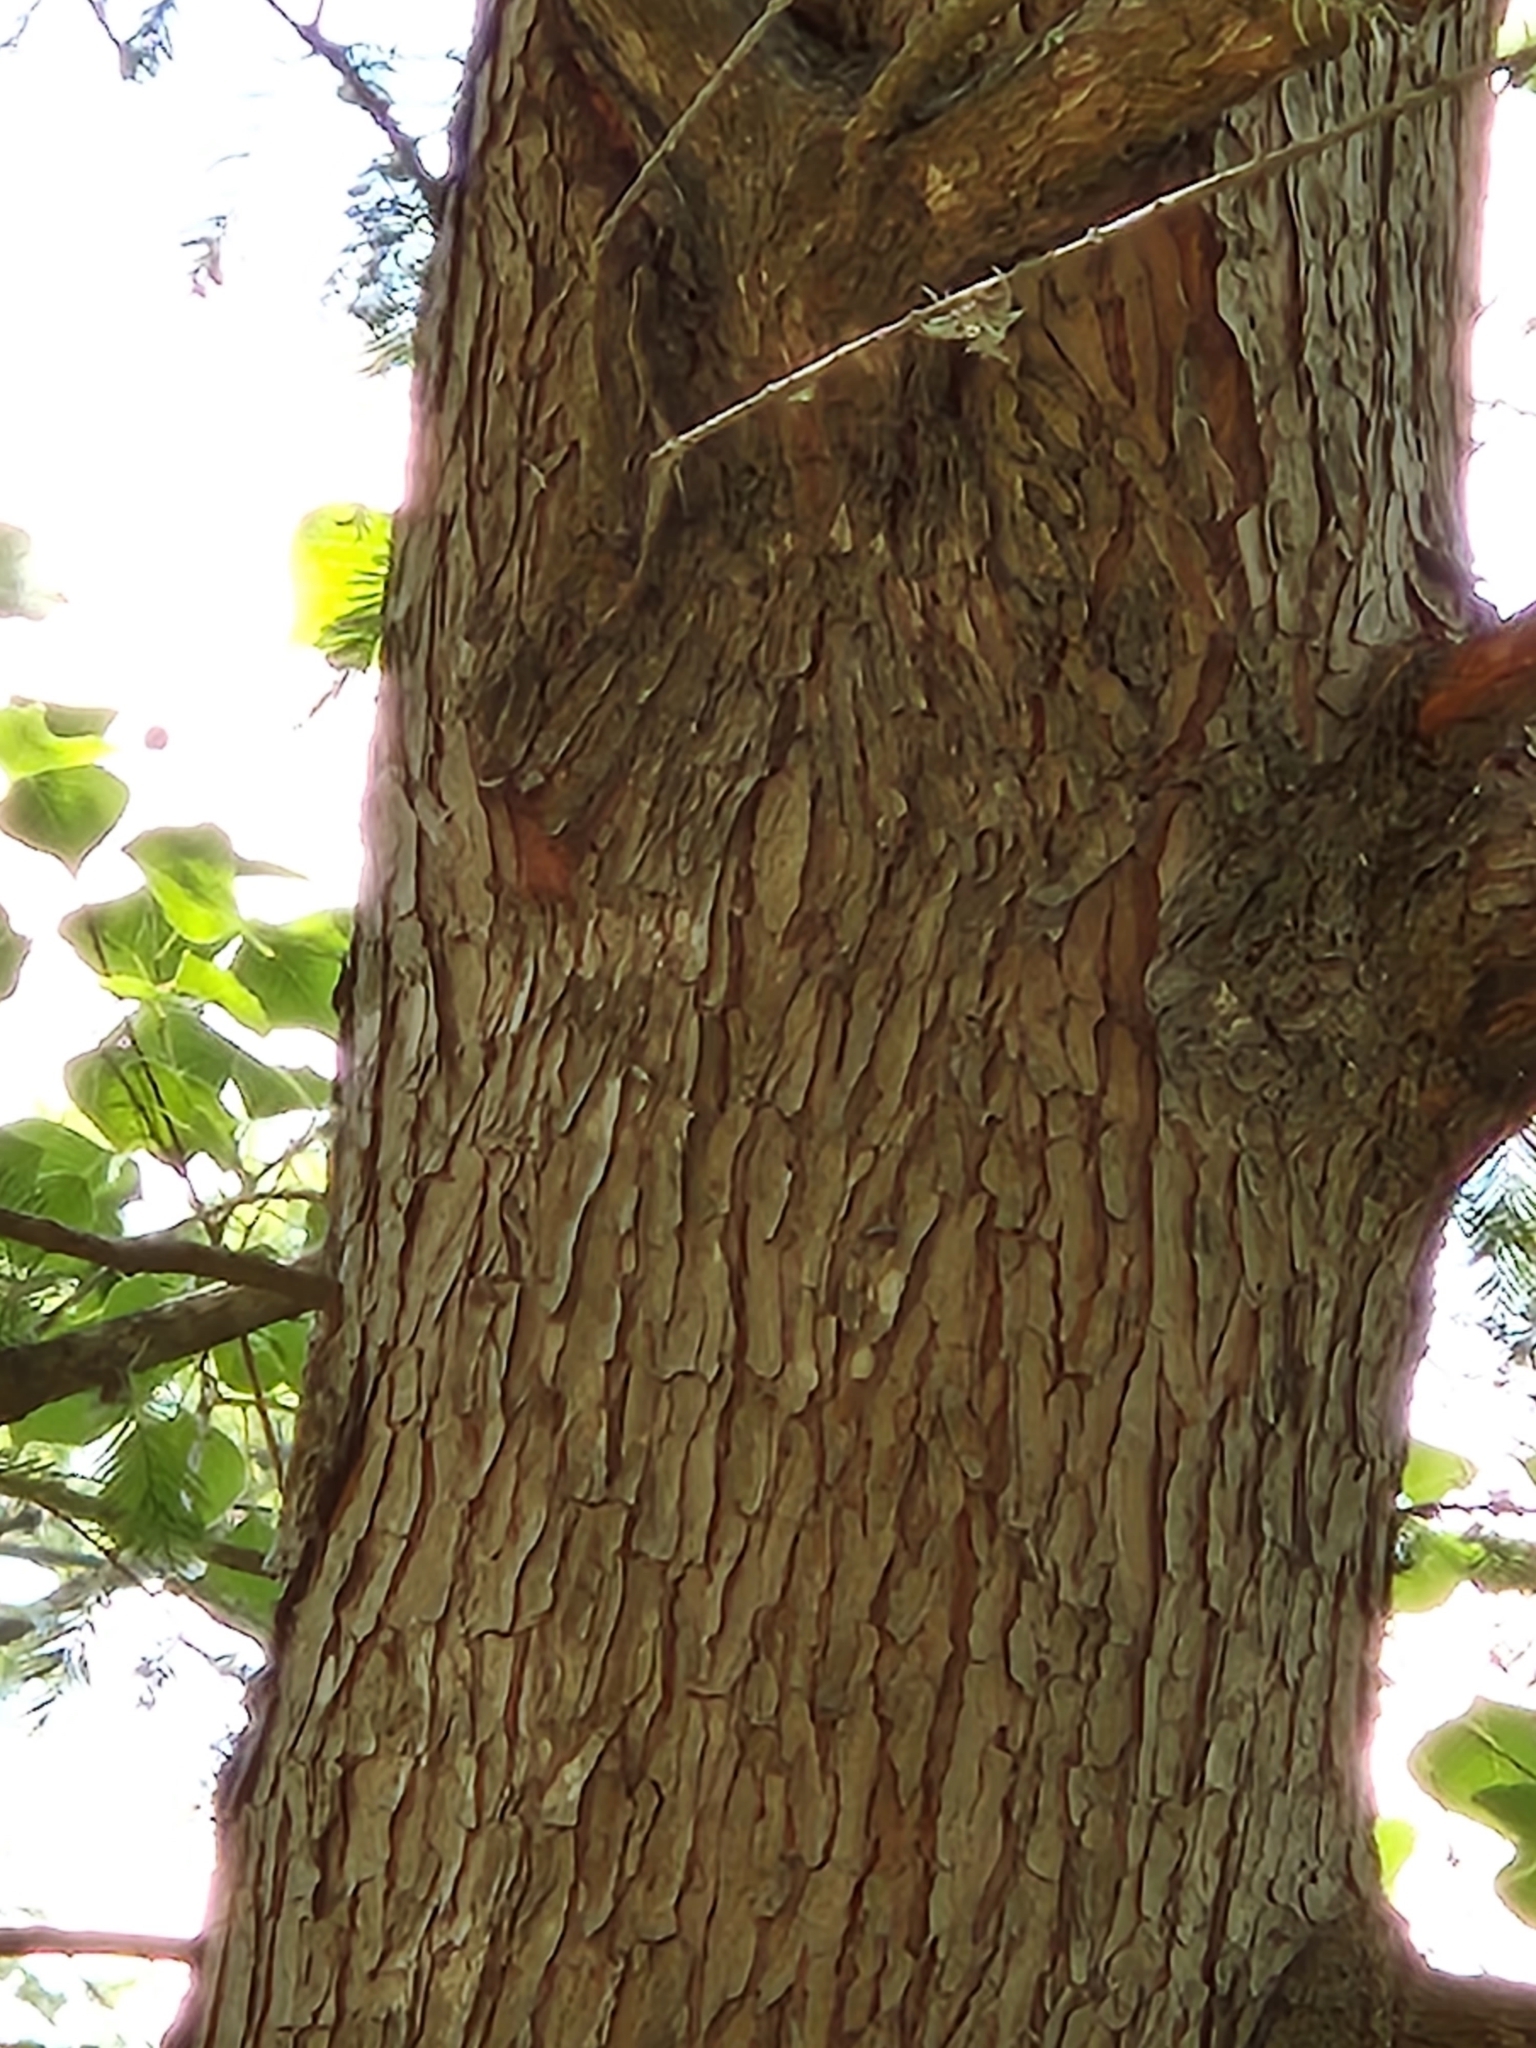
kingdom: Plantae
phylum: Tracheophyta
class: Pinopsida
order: Pinales
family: Cupressaceae
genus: Taxodium
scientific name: Taxodium distichum
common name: Bald cypress
